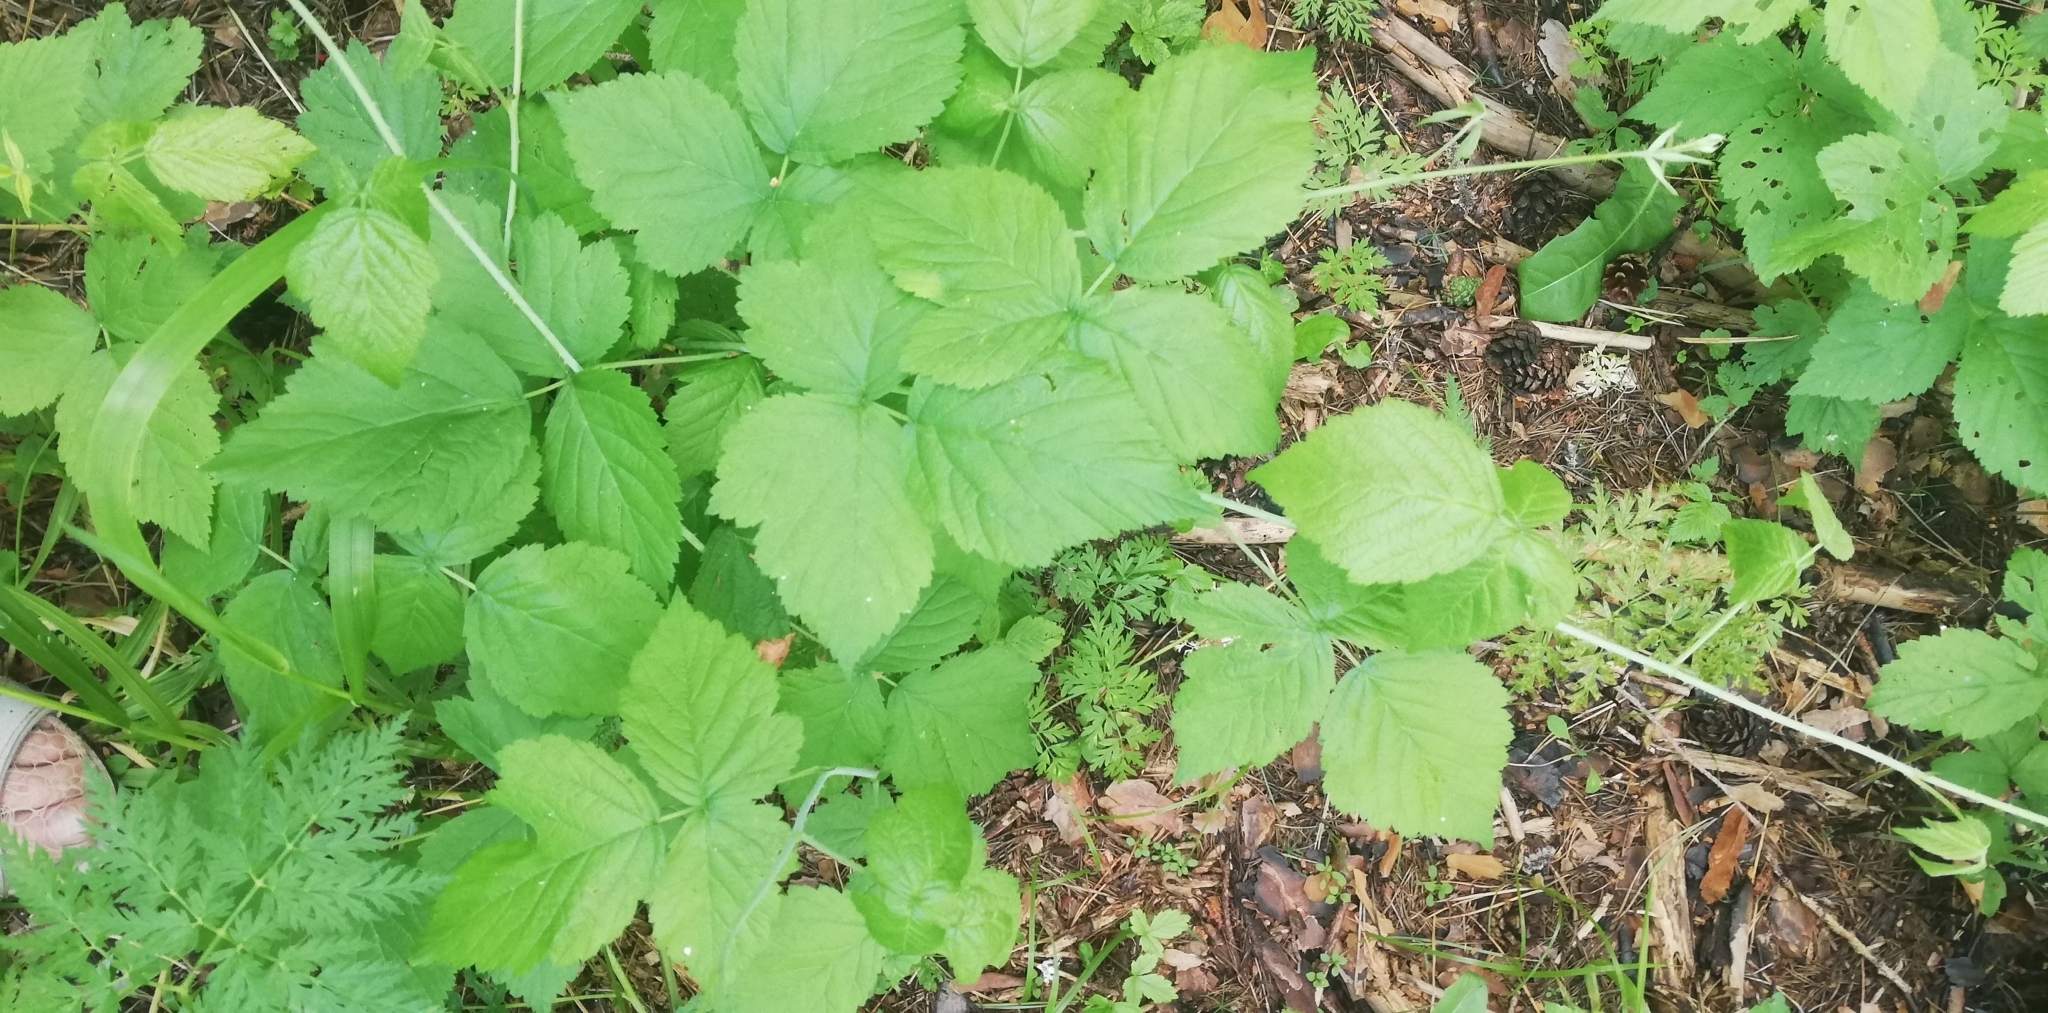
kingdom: Plantae
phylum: Tracheophyta
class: Magnoliopsida
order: Rosales
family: Rosaceae
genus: Rubus
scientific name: Rubus saxatilis
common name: Stone bramble
